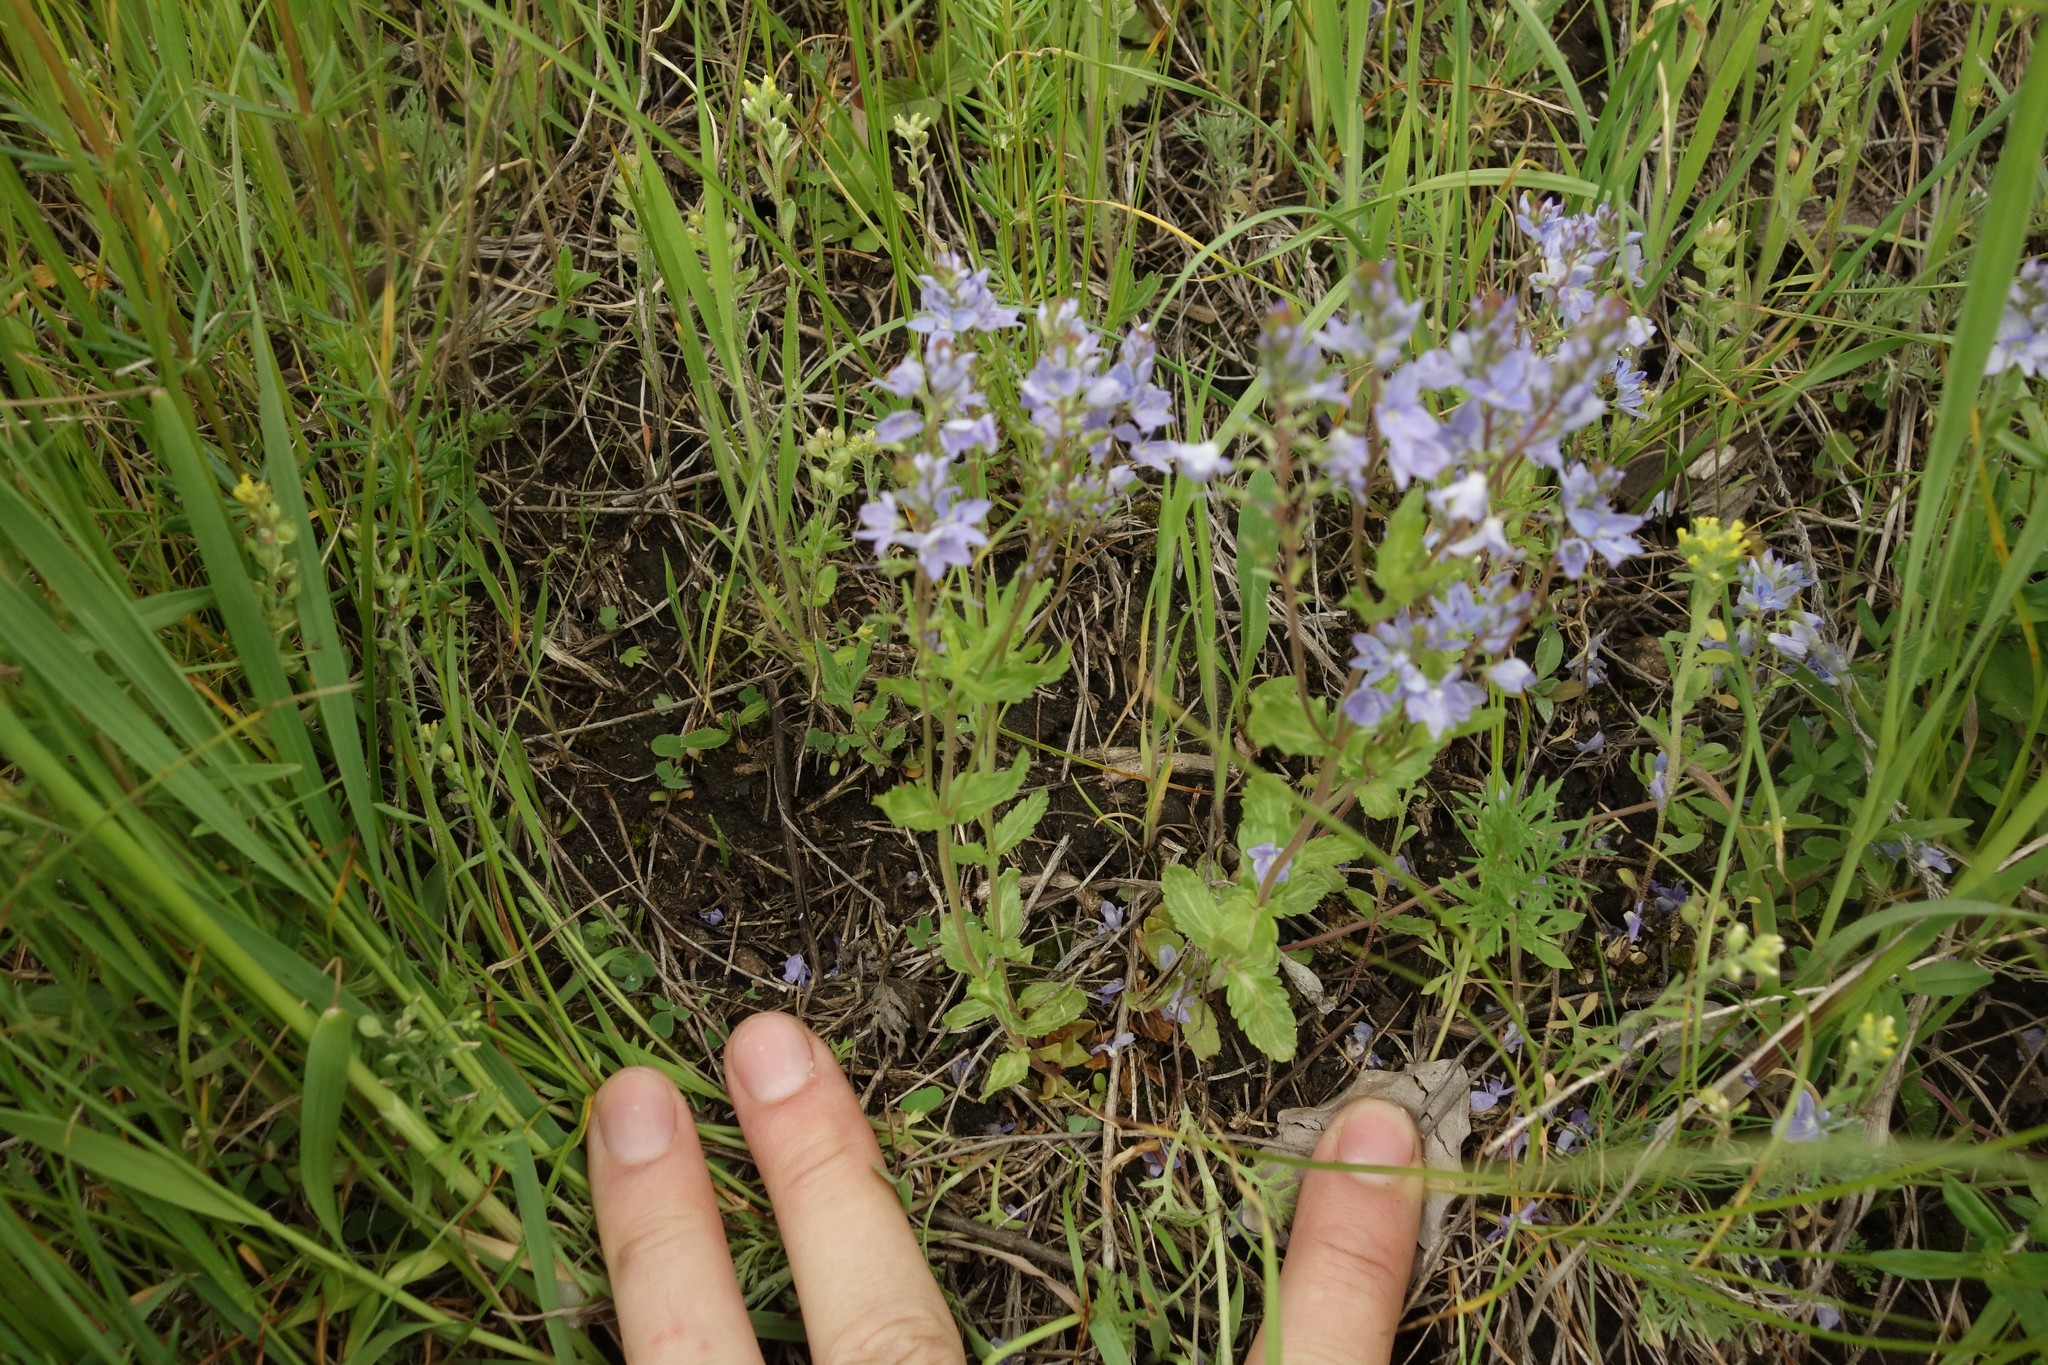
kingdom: Plantae
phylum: Tracheophyta
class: Magnoliopsida
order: Lamiales
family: Plantaginaceae
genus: Veronica
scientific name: Veronica prostrata
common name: Prostrate speedwell
